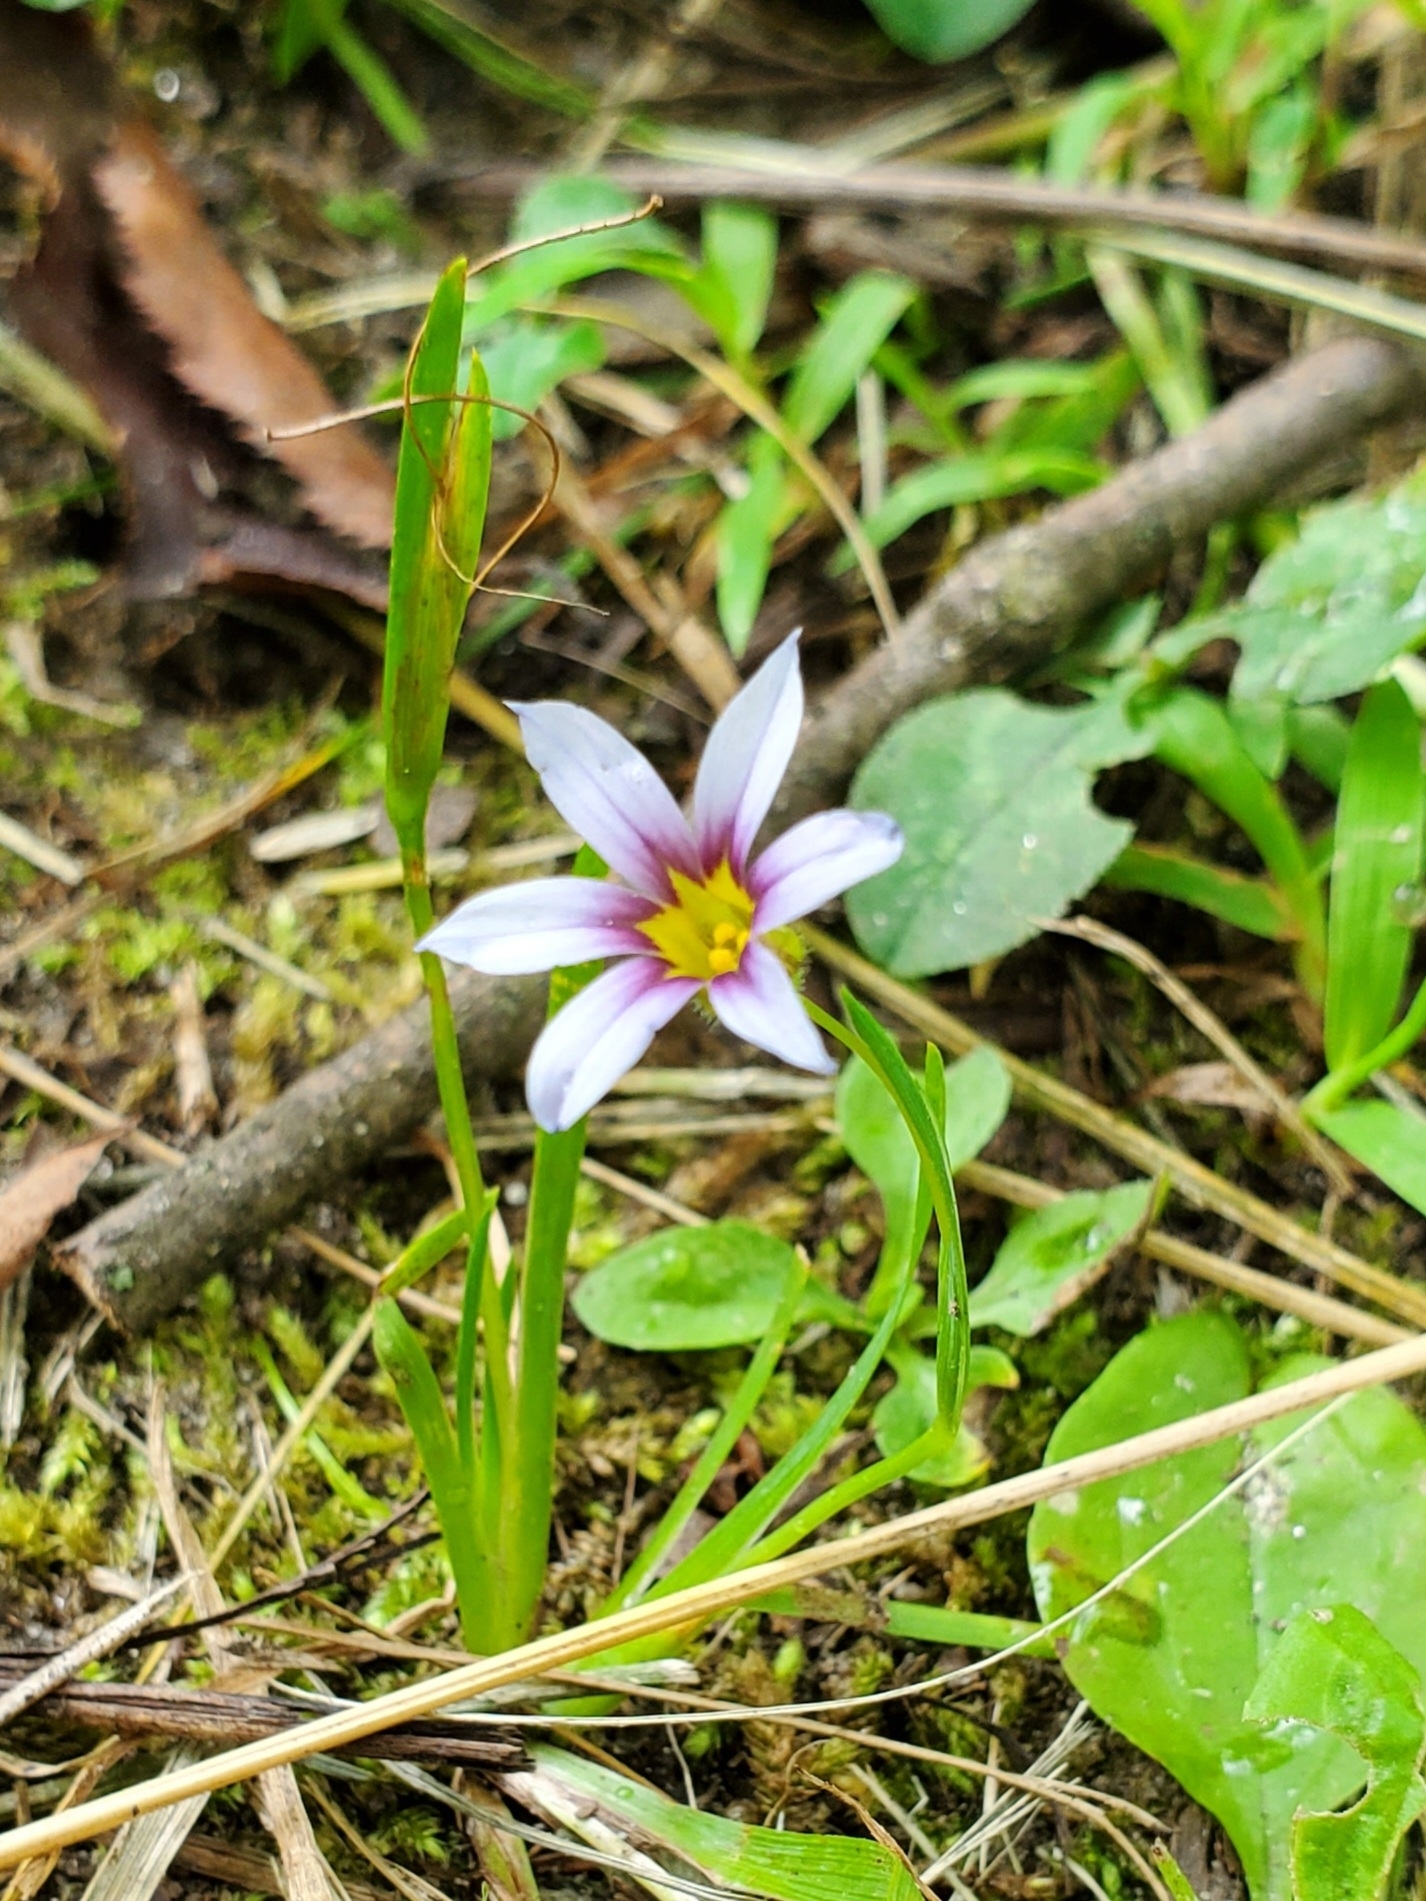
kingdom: Plantae
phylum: Tracheophyta
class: Liliopsida
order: Asparagales
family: Iridaceae
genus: Sisyrinchium
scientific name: Sisyrinchium micranthum
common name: Bermuda pigroot
